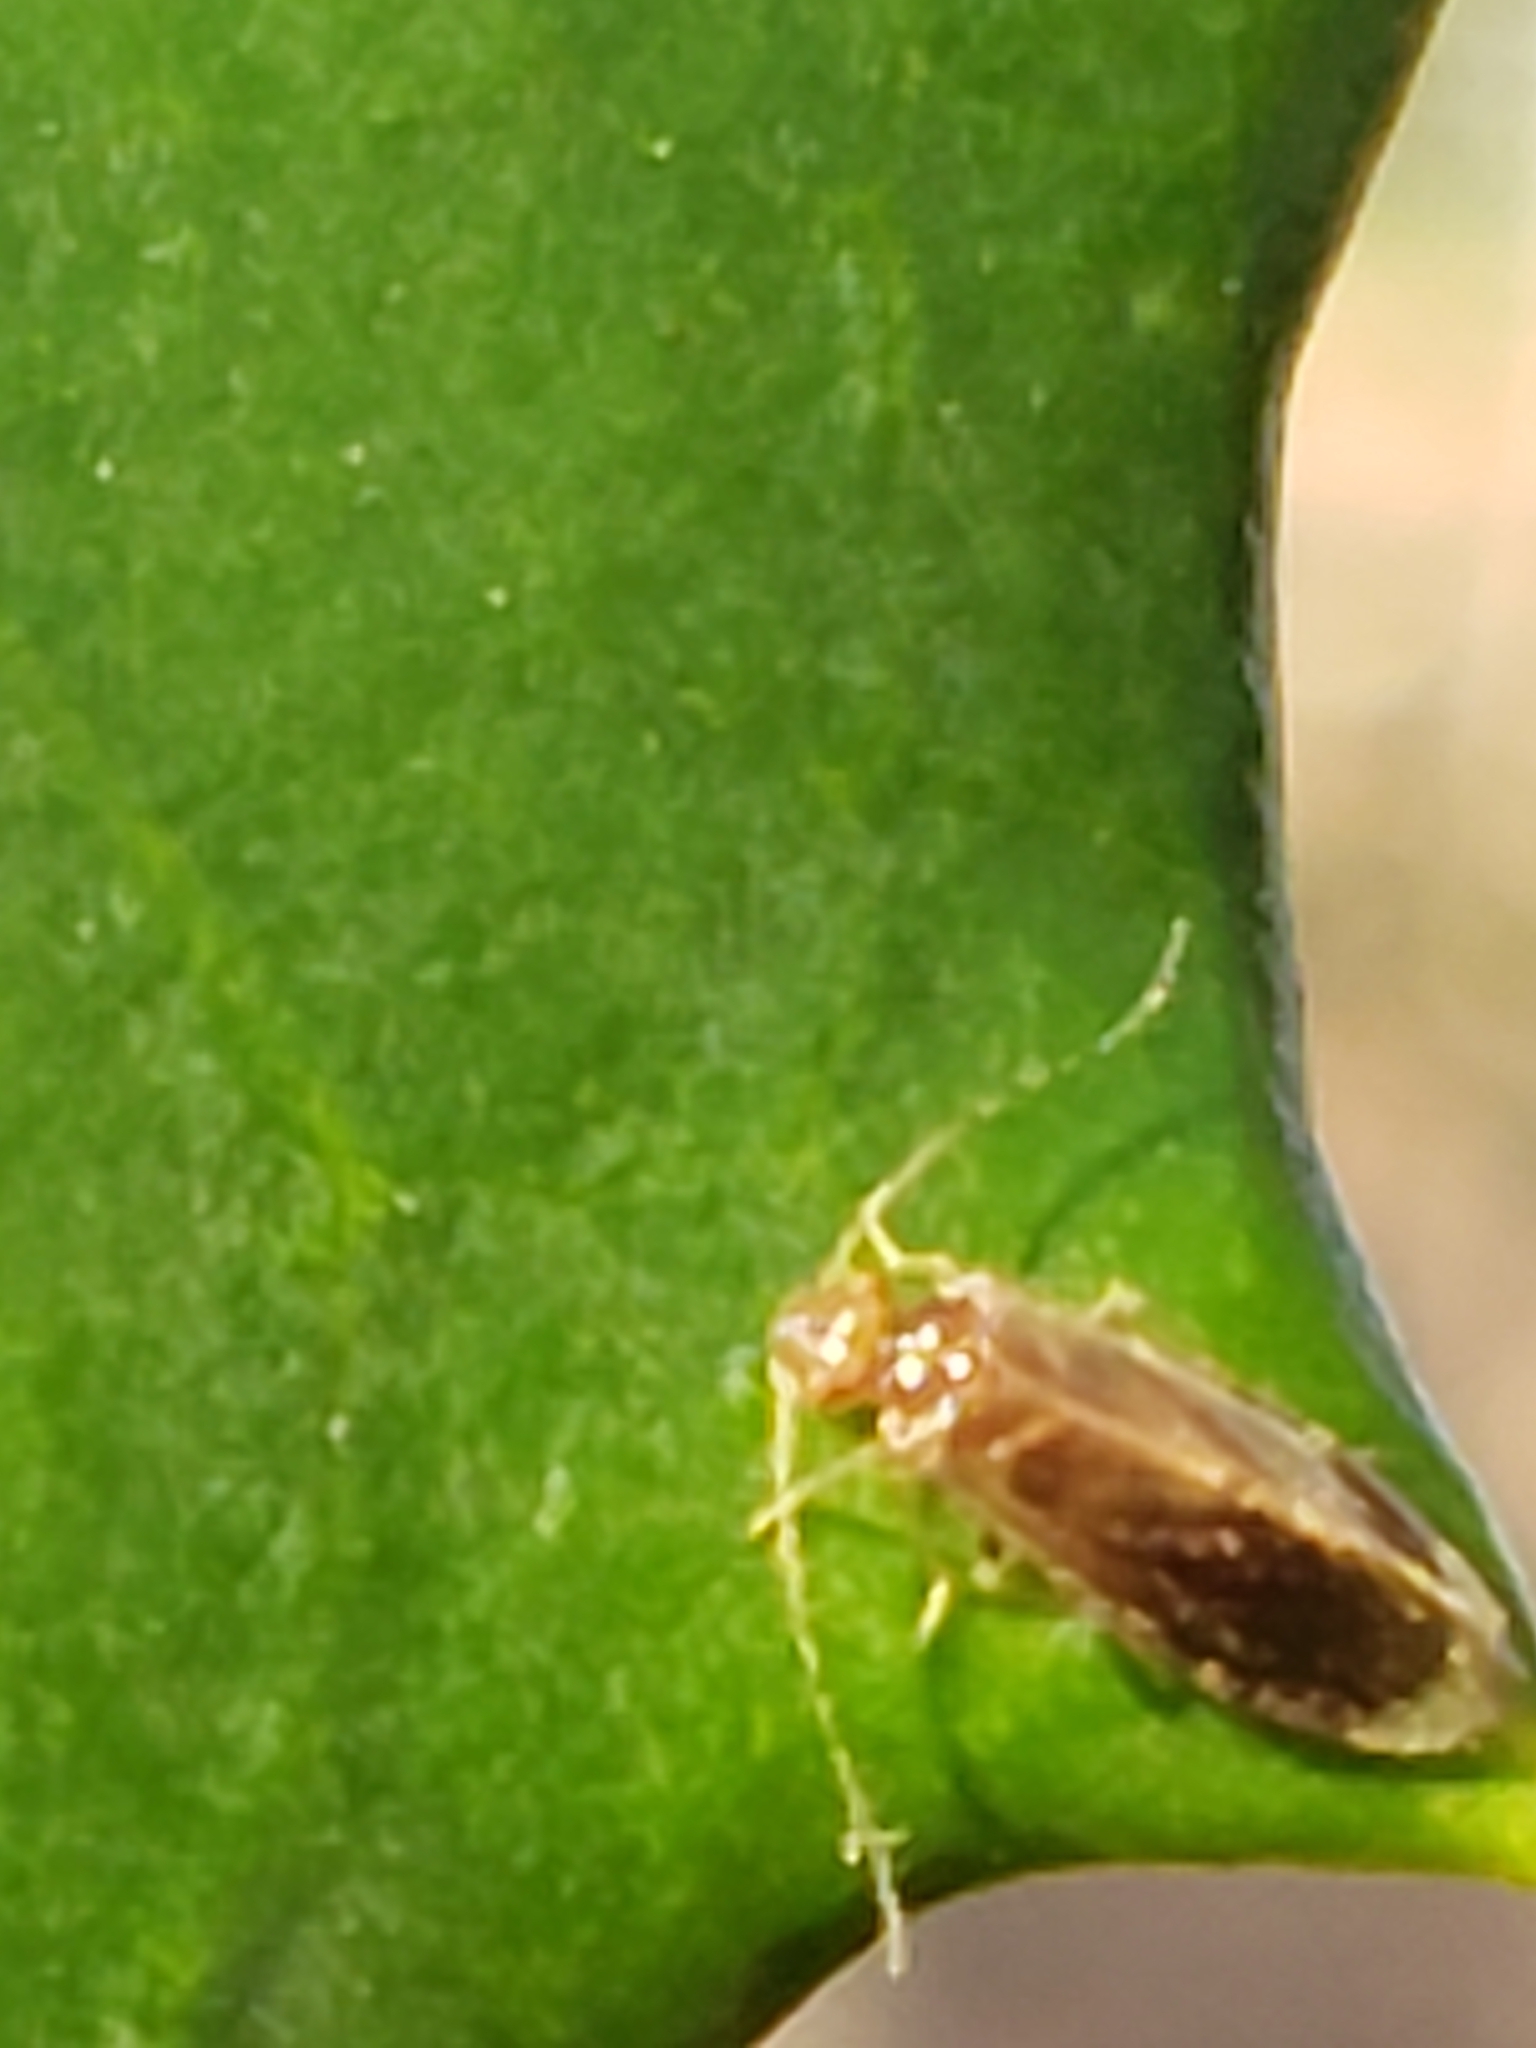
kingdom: Animalia
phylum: Arthropoda
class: Insecta
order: Psocodea
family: Amphipsocidae
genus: Polypsocus
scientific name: Polypsocus corruptus
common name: Corrupt barklouse
